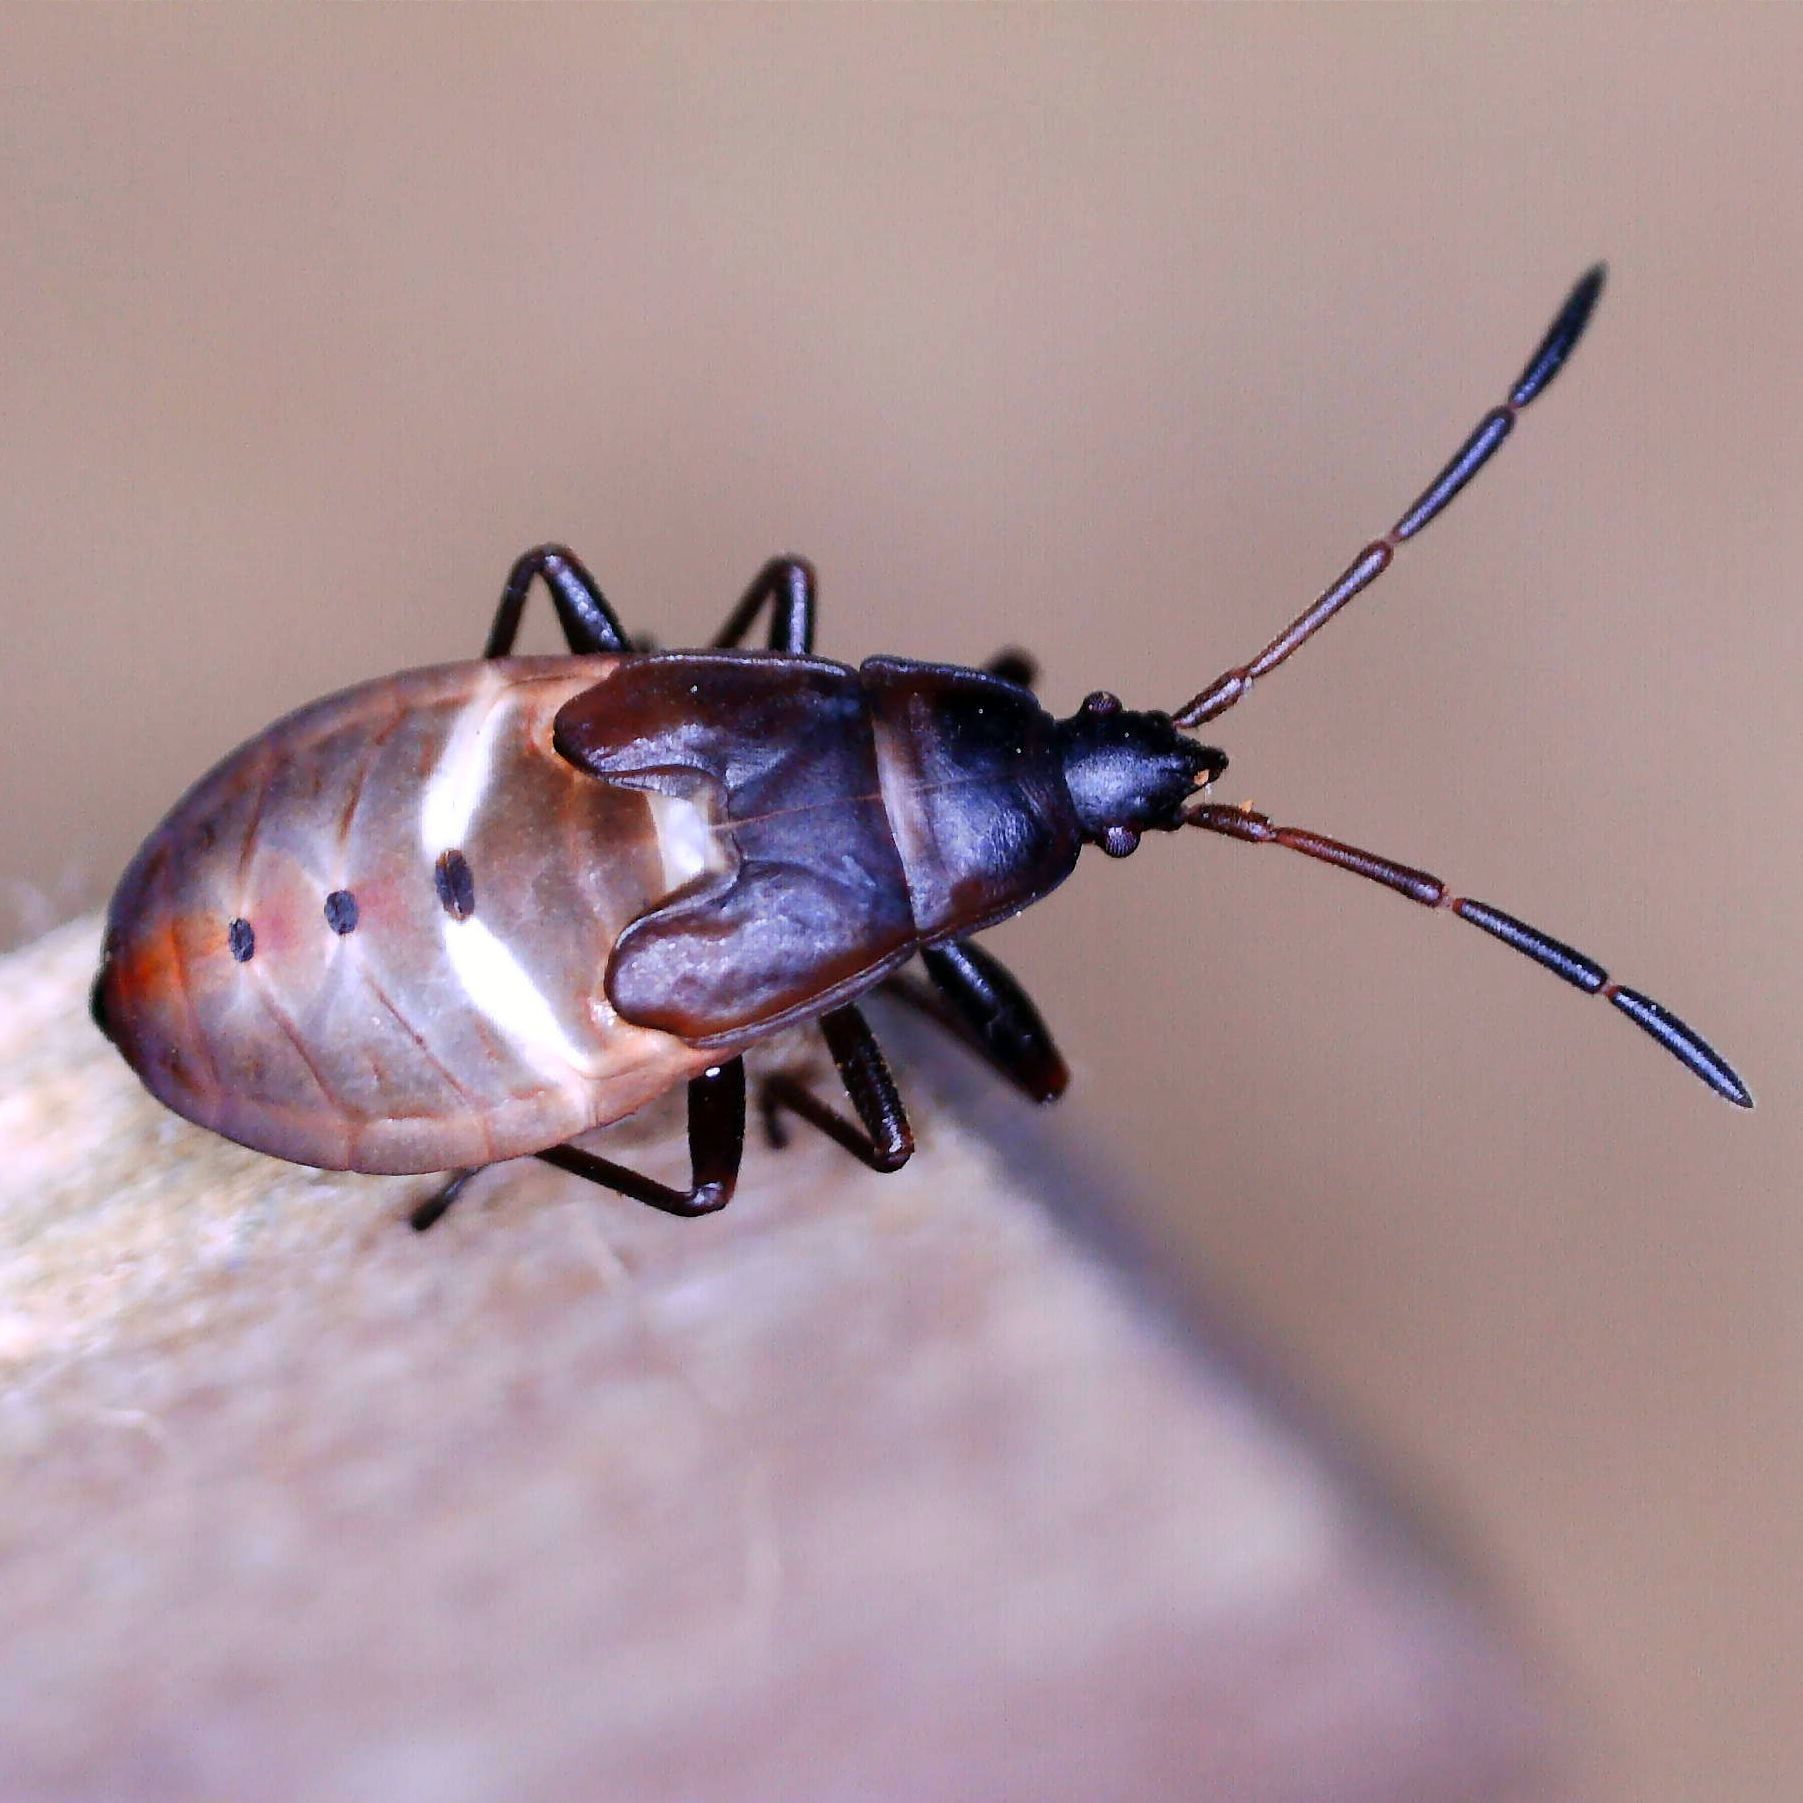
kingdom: Animalia
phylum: Arthropoda
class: Insecta
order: Hemiptera
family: Rhyparochromidae
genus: Gastrodes
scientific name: Gastrodes grossipes
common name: Pine cone bug
